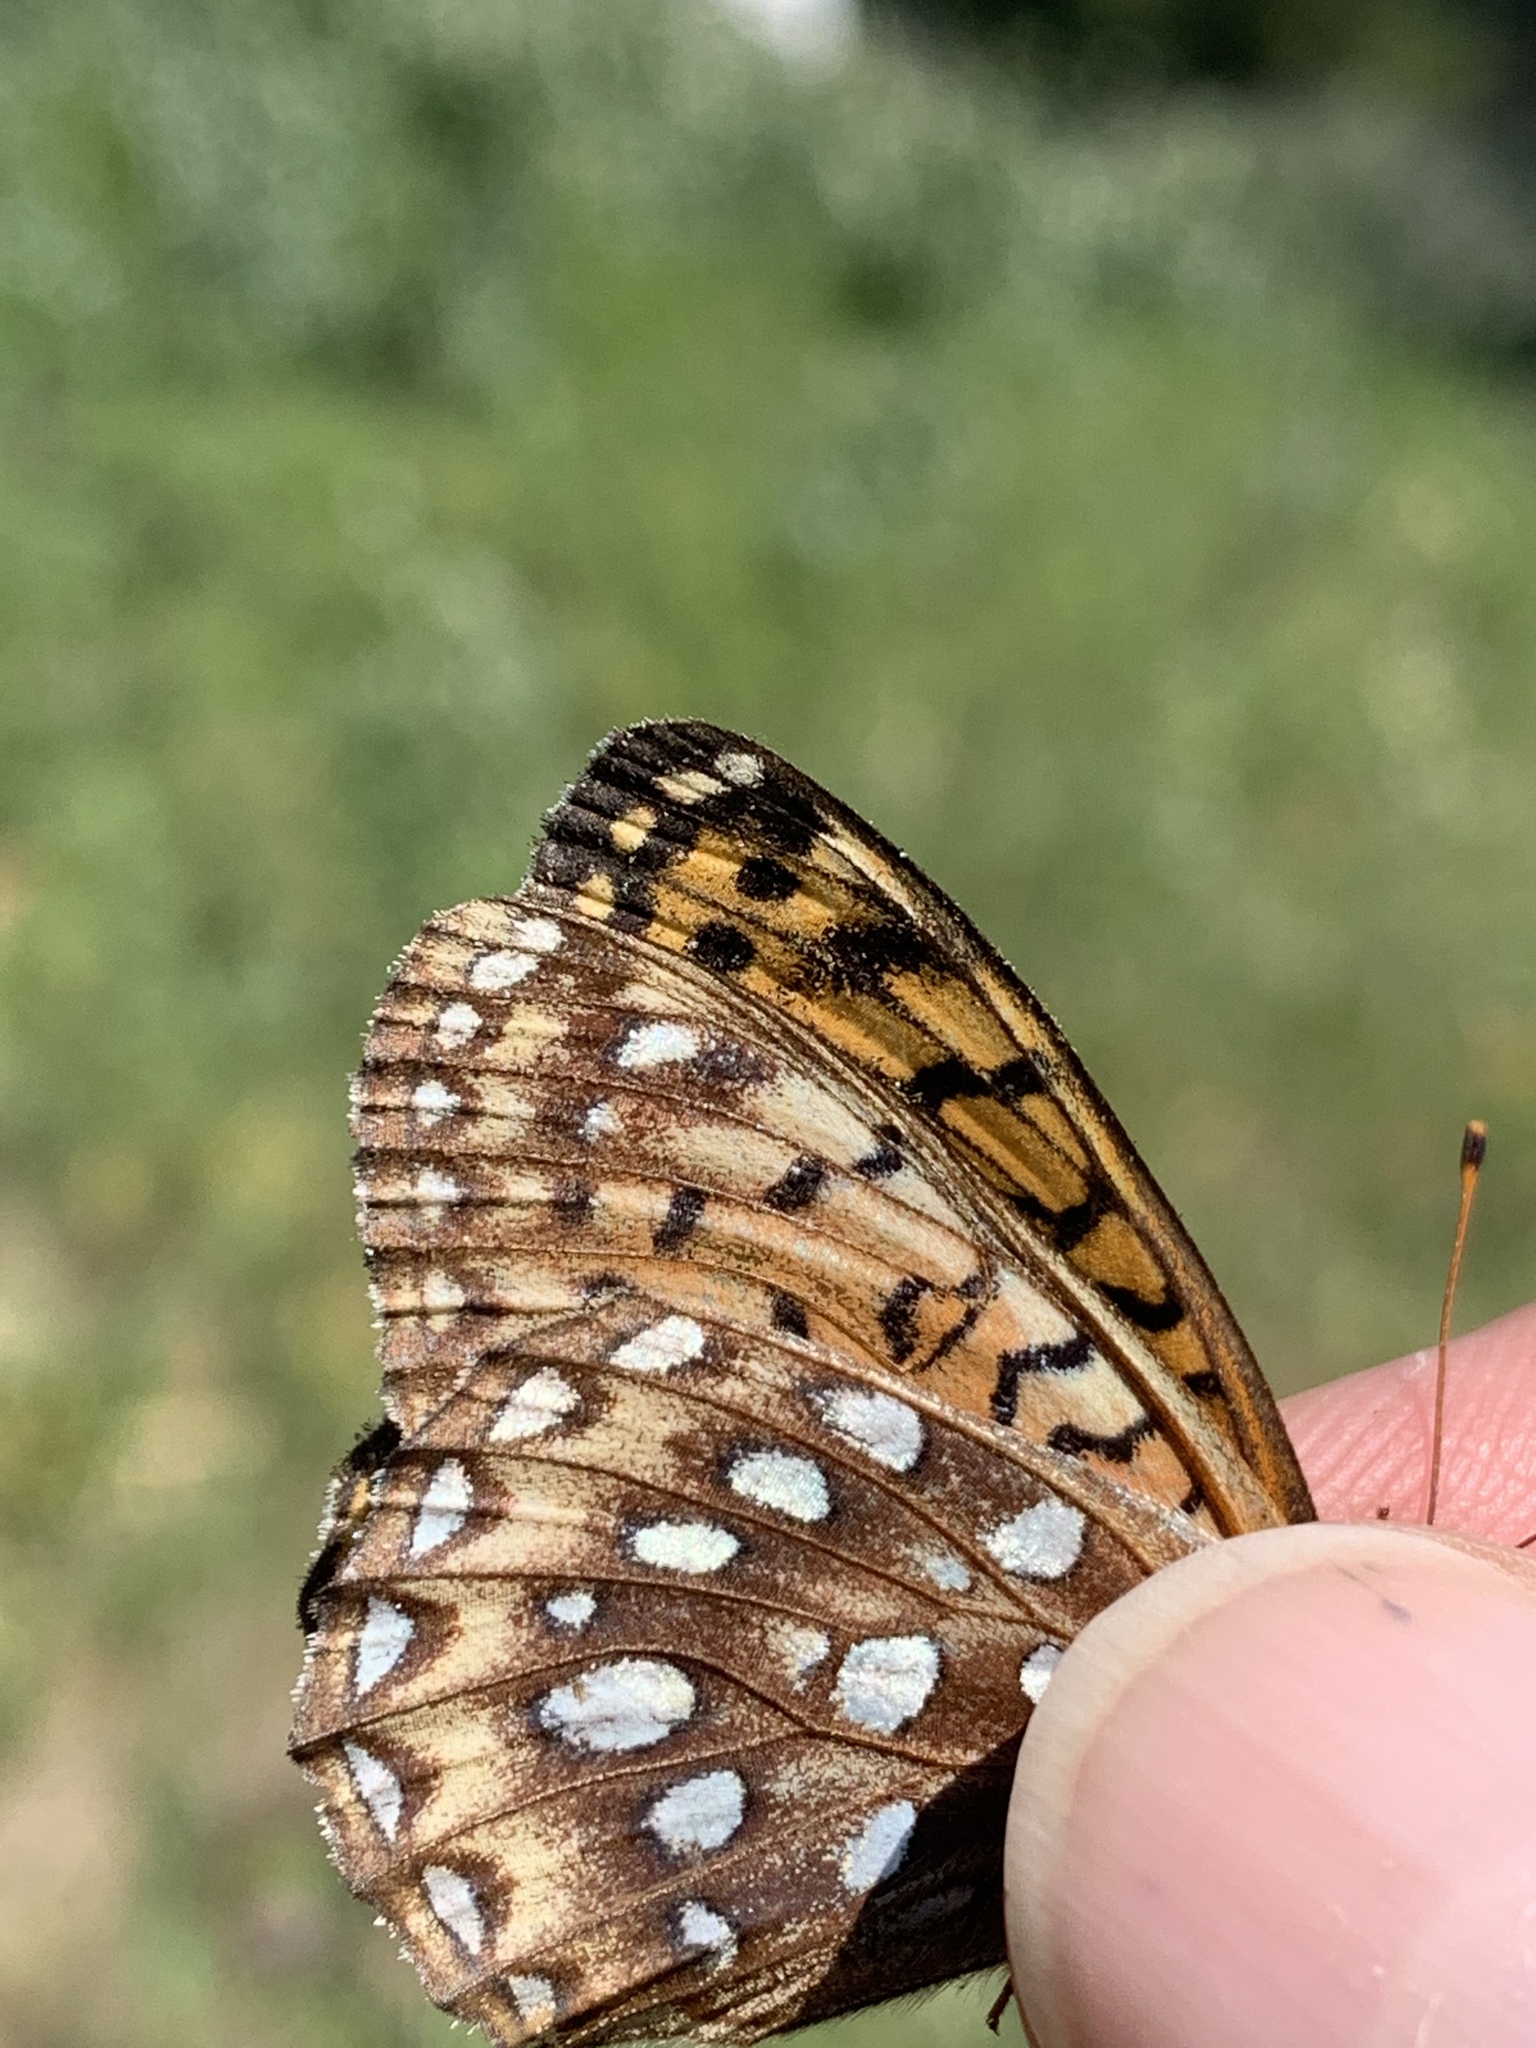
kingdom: Animalia
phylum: Arthropoda
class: Insecta
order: Lepidoptera
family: Nymphalidae
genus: Speyeria
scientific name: Speyeria atlantis
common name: Atlantis fritillary
